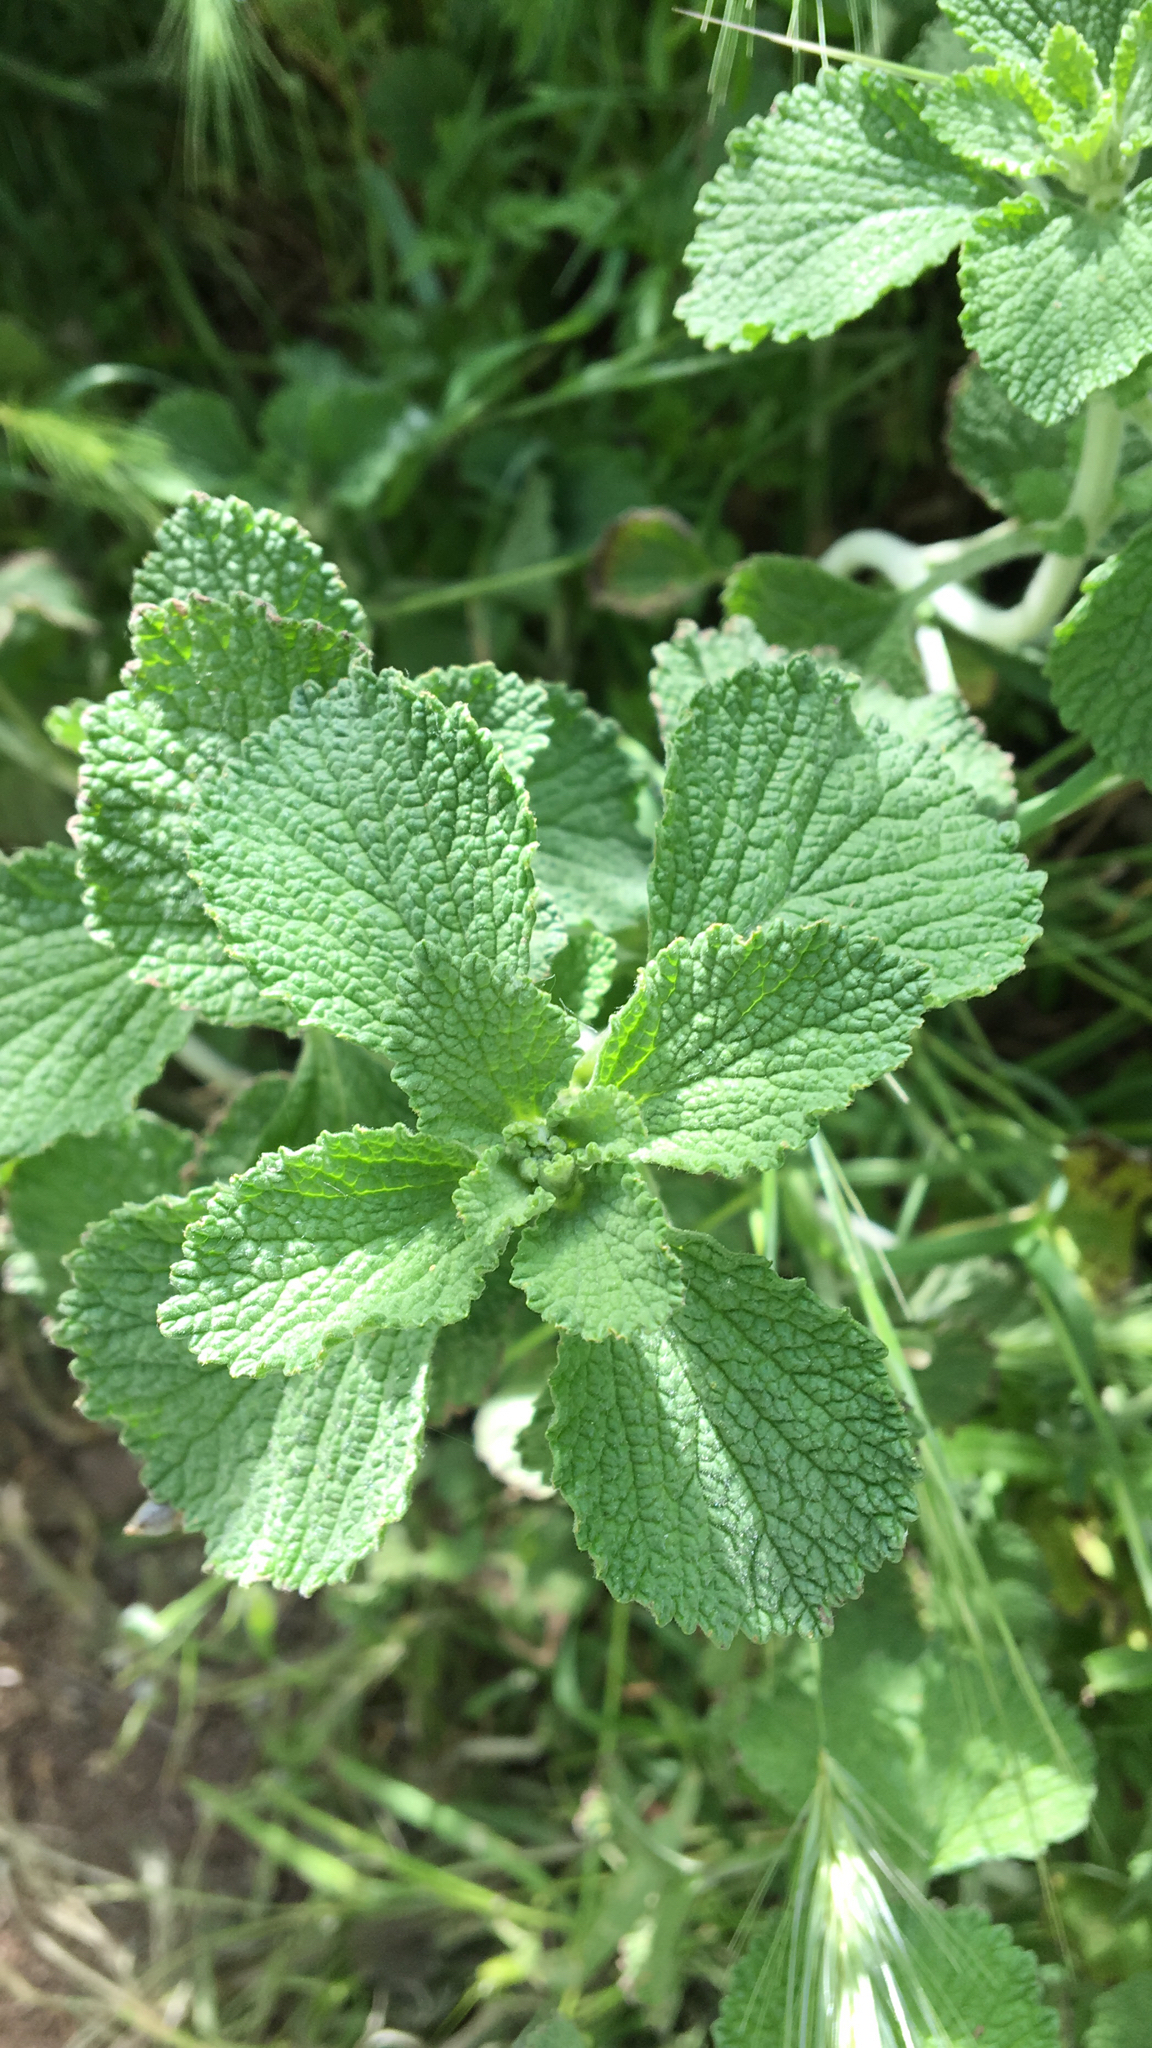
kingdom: Plantae
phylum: Tracheophyta
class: Magnoliopsida
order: Lamiales
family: Lamiaceae
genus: Marrubium
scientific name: Marrubium vulgare
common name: Horehound
